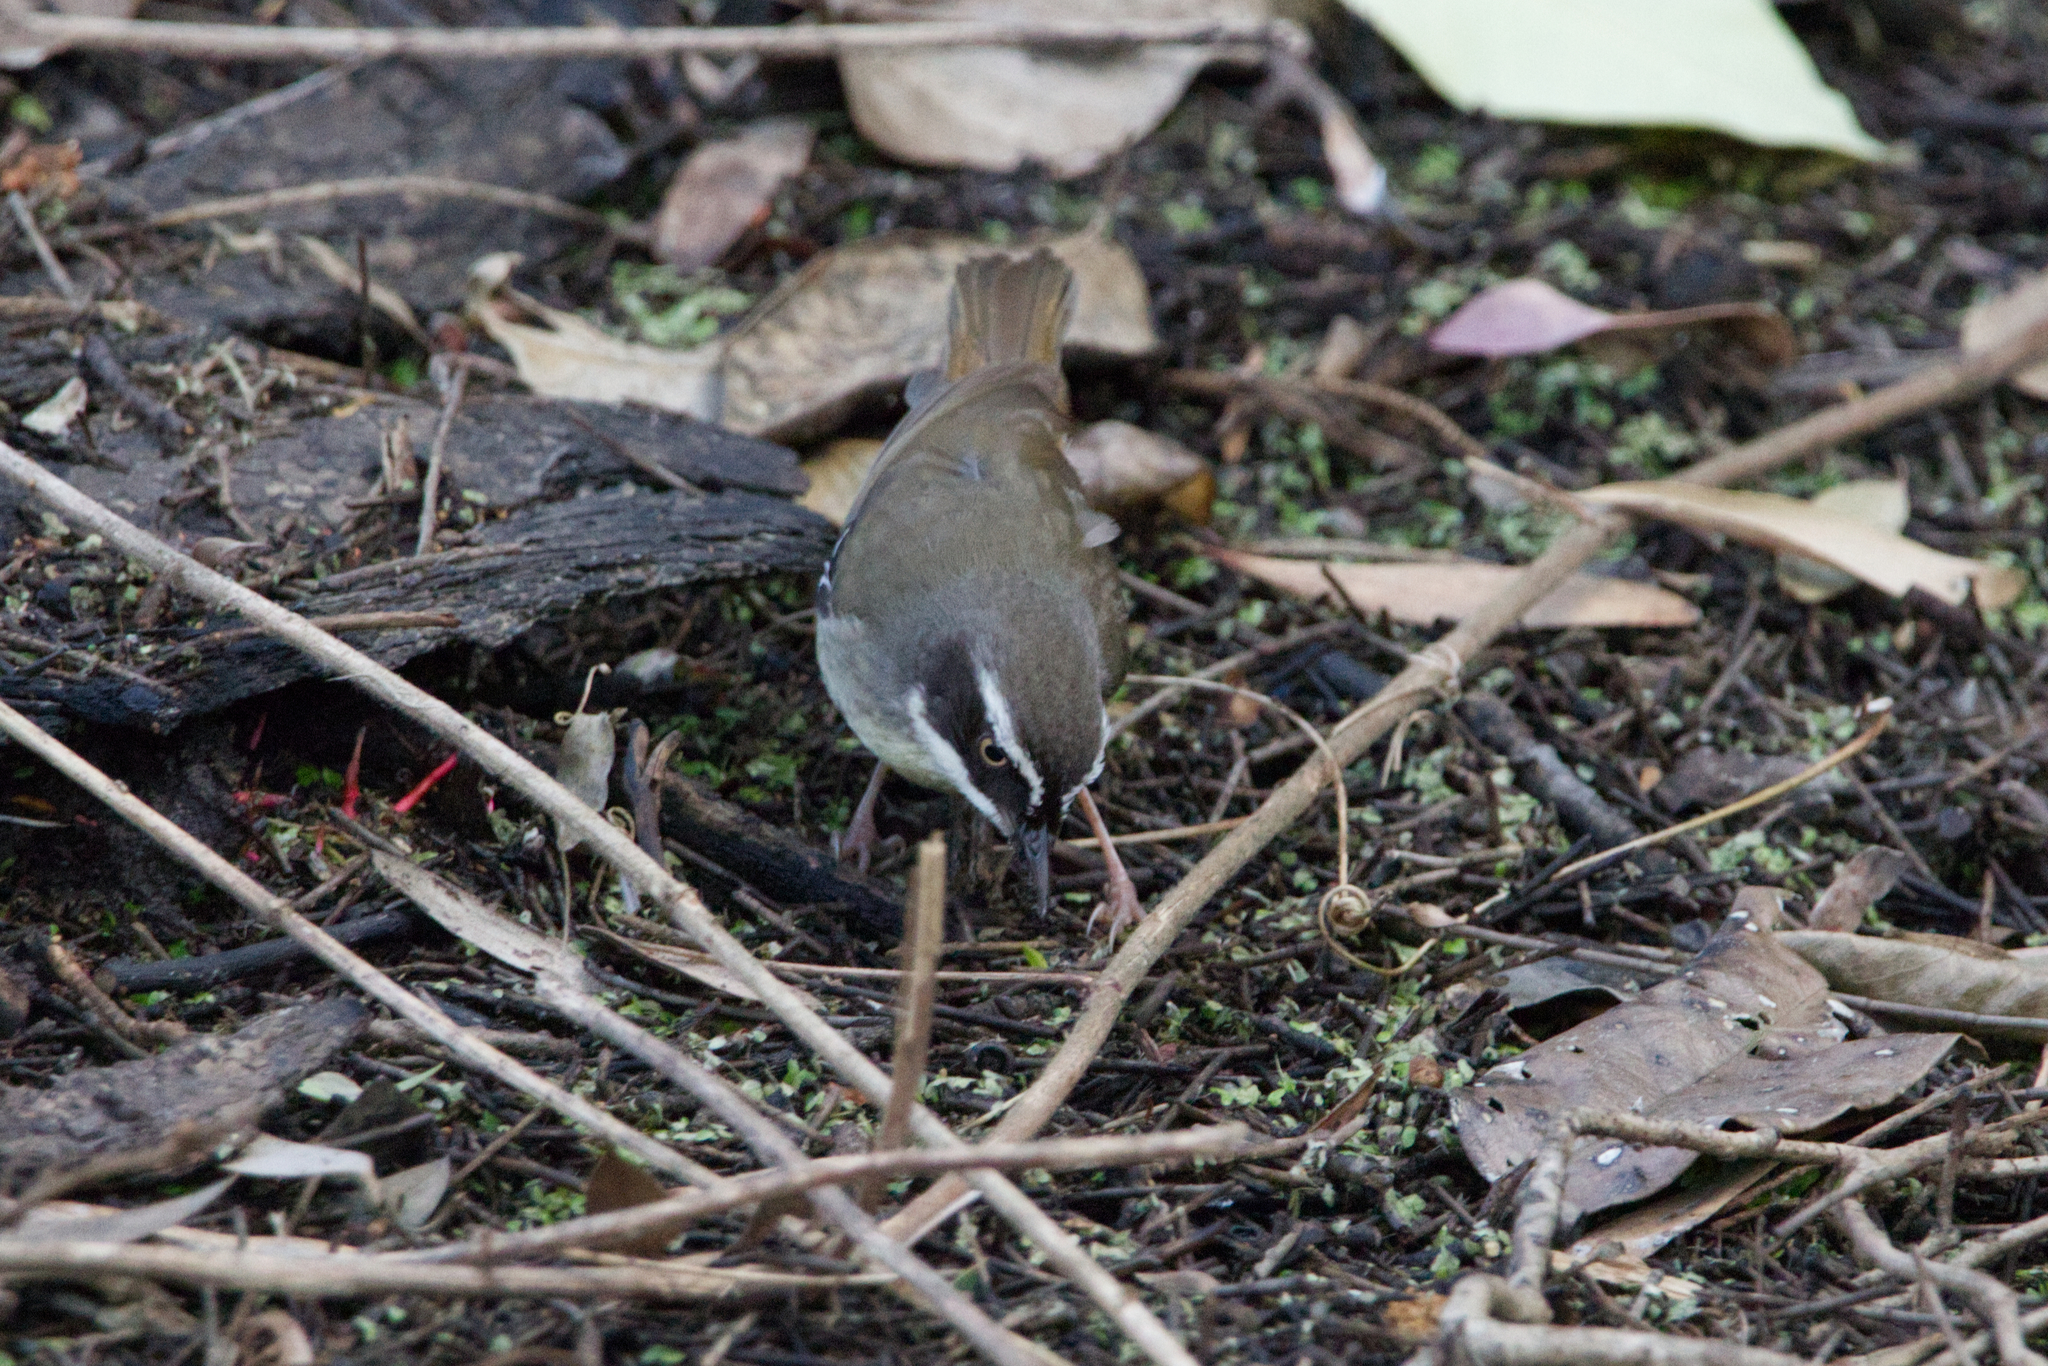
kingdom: Animalia
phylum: Chordata
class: Aves
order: Passeriformes
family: Acanthizidae
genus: Sericornis
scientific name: Sericornis frontalis
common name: White-browed scrubwren
